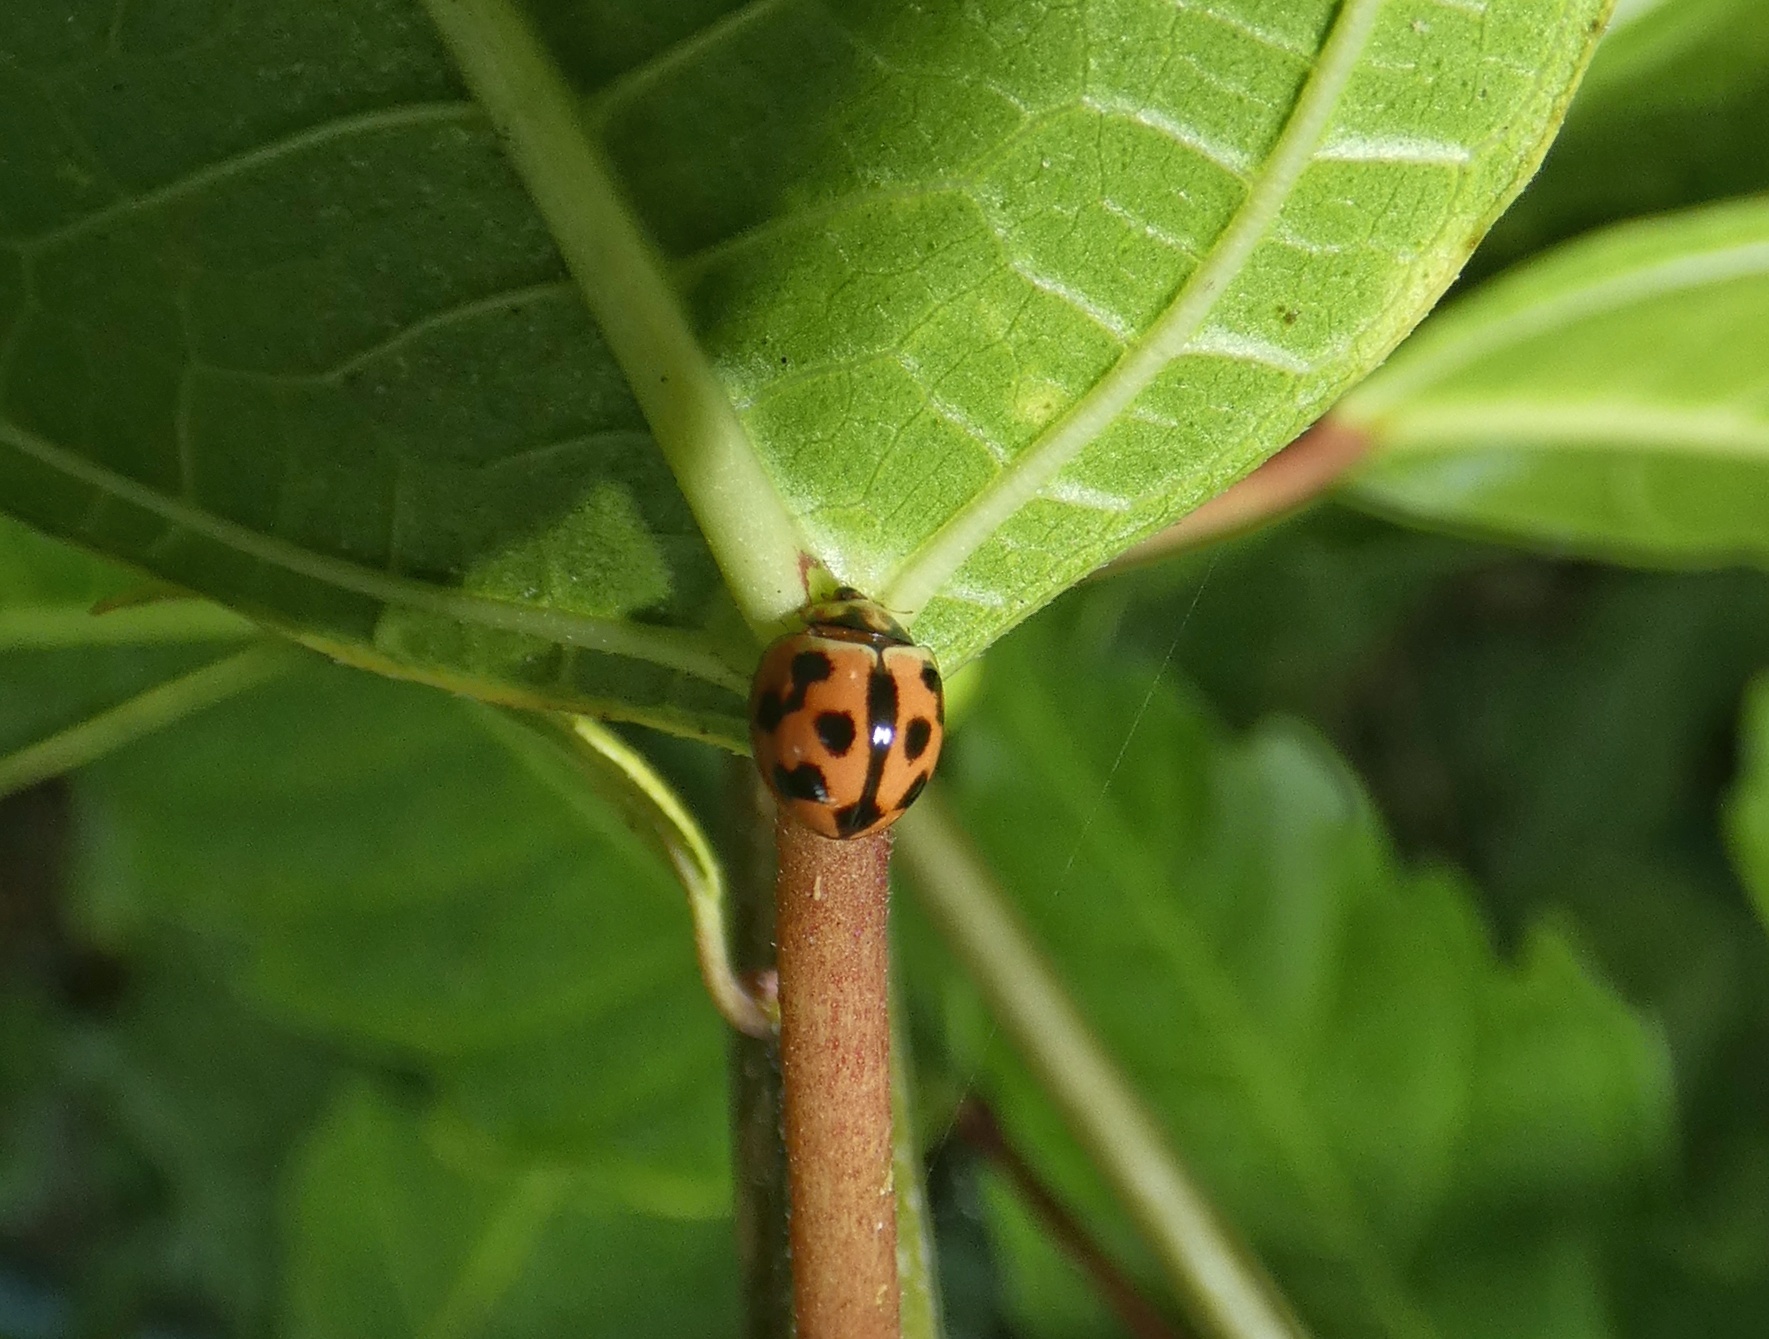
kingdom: Animalia
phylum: Arthropoda
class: Insecta
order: Coleoptera
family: Coccinellidae
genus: Coelophora
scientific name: Coelophora inaequalis
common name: Common australian lady beetle
